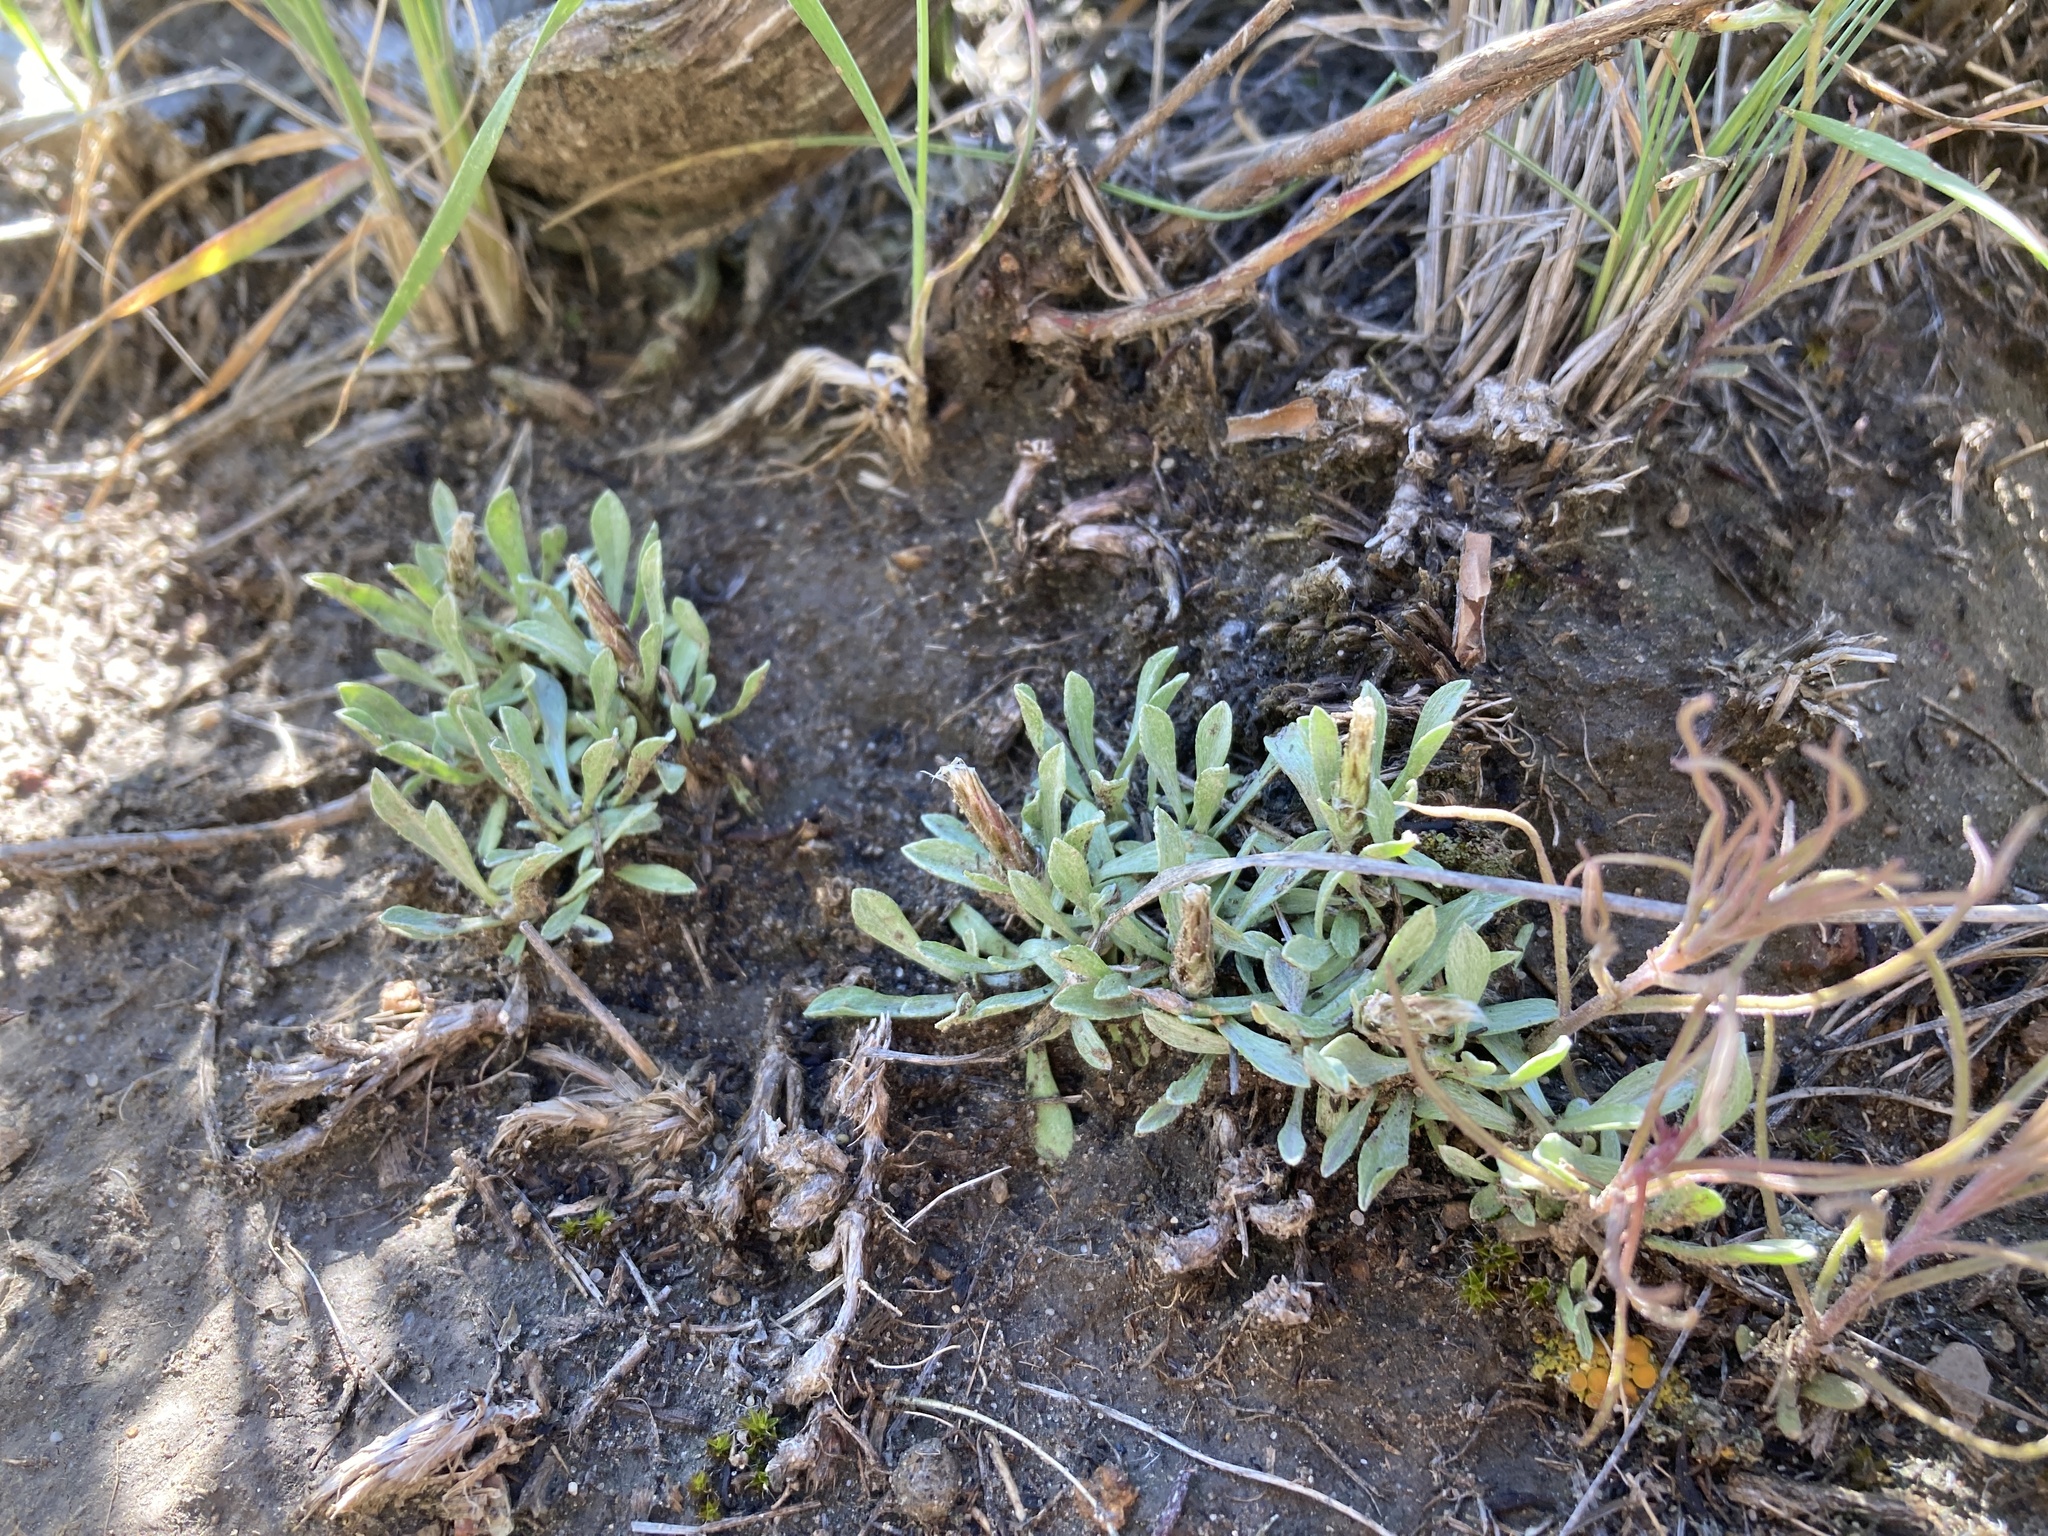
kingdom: Plantae
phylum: Tracheophyta
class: Magnoliopsida
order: Asterales
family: Asteraceae
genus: Antennaria
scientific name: Antennaria dimorpha
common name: Cushion pussytoes
